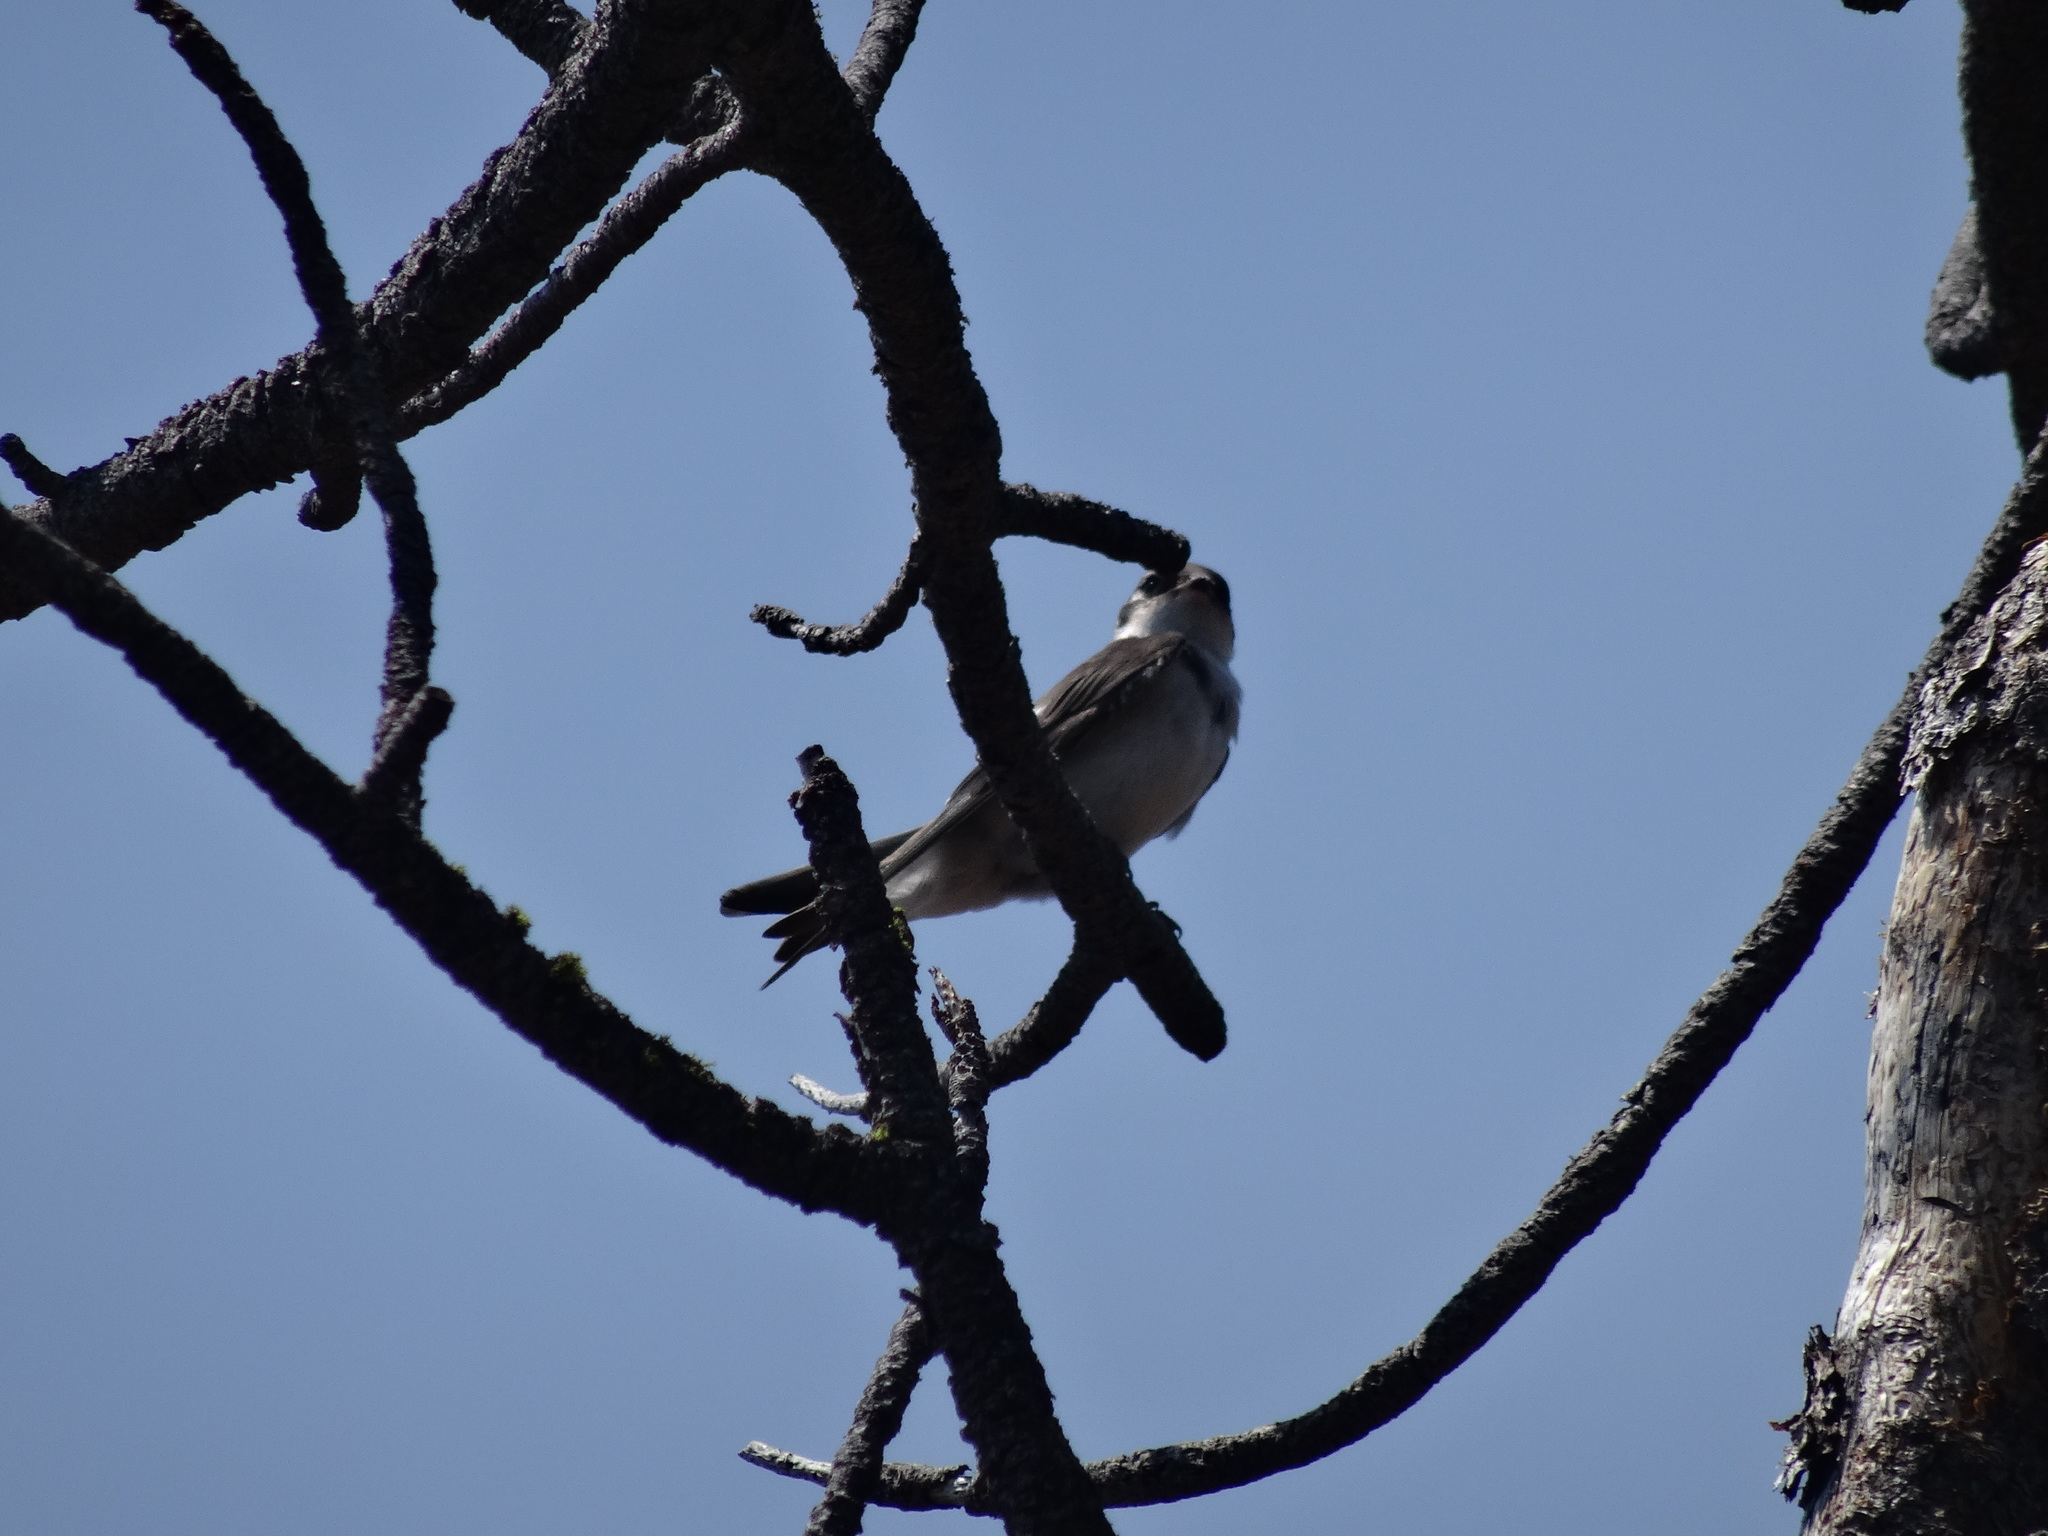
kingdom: Animalia
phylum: Chordata
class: Aves
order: Passeriformes
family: Hirundinidae
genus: Riparia
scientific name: Riparia riparia
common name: Sand martin
